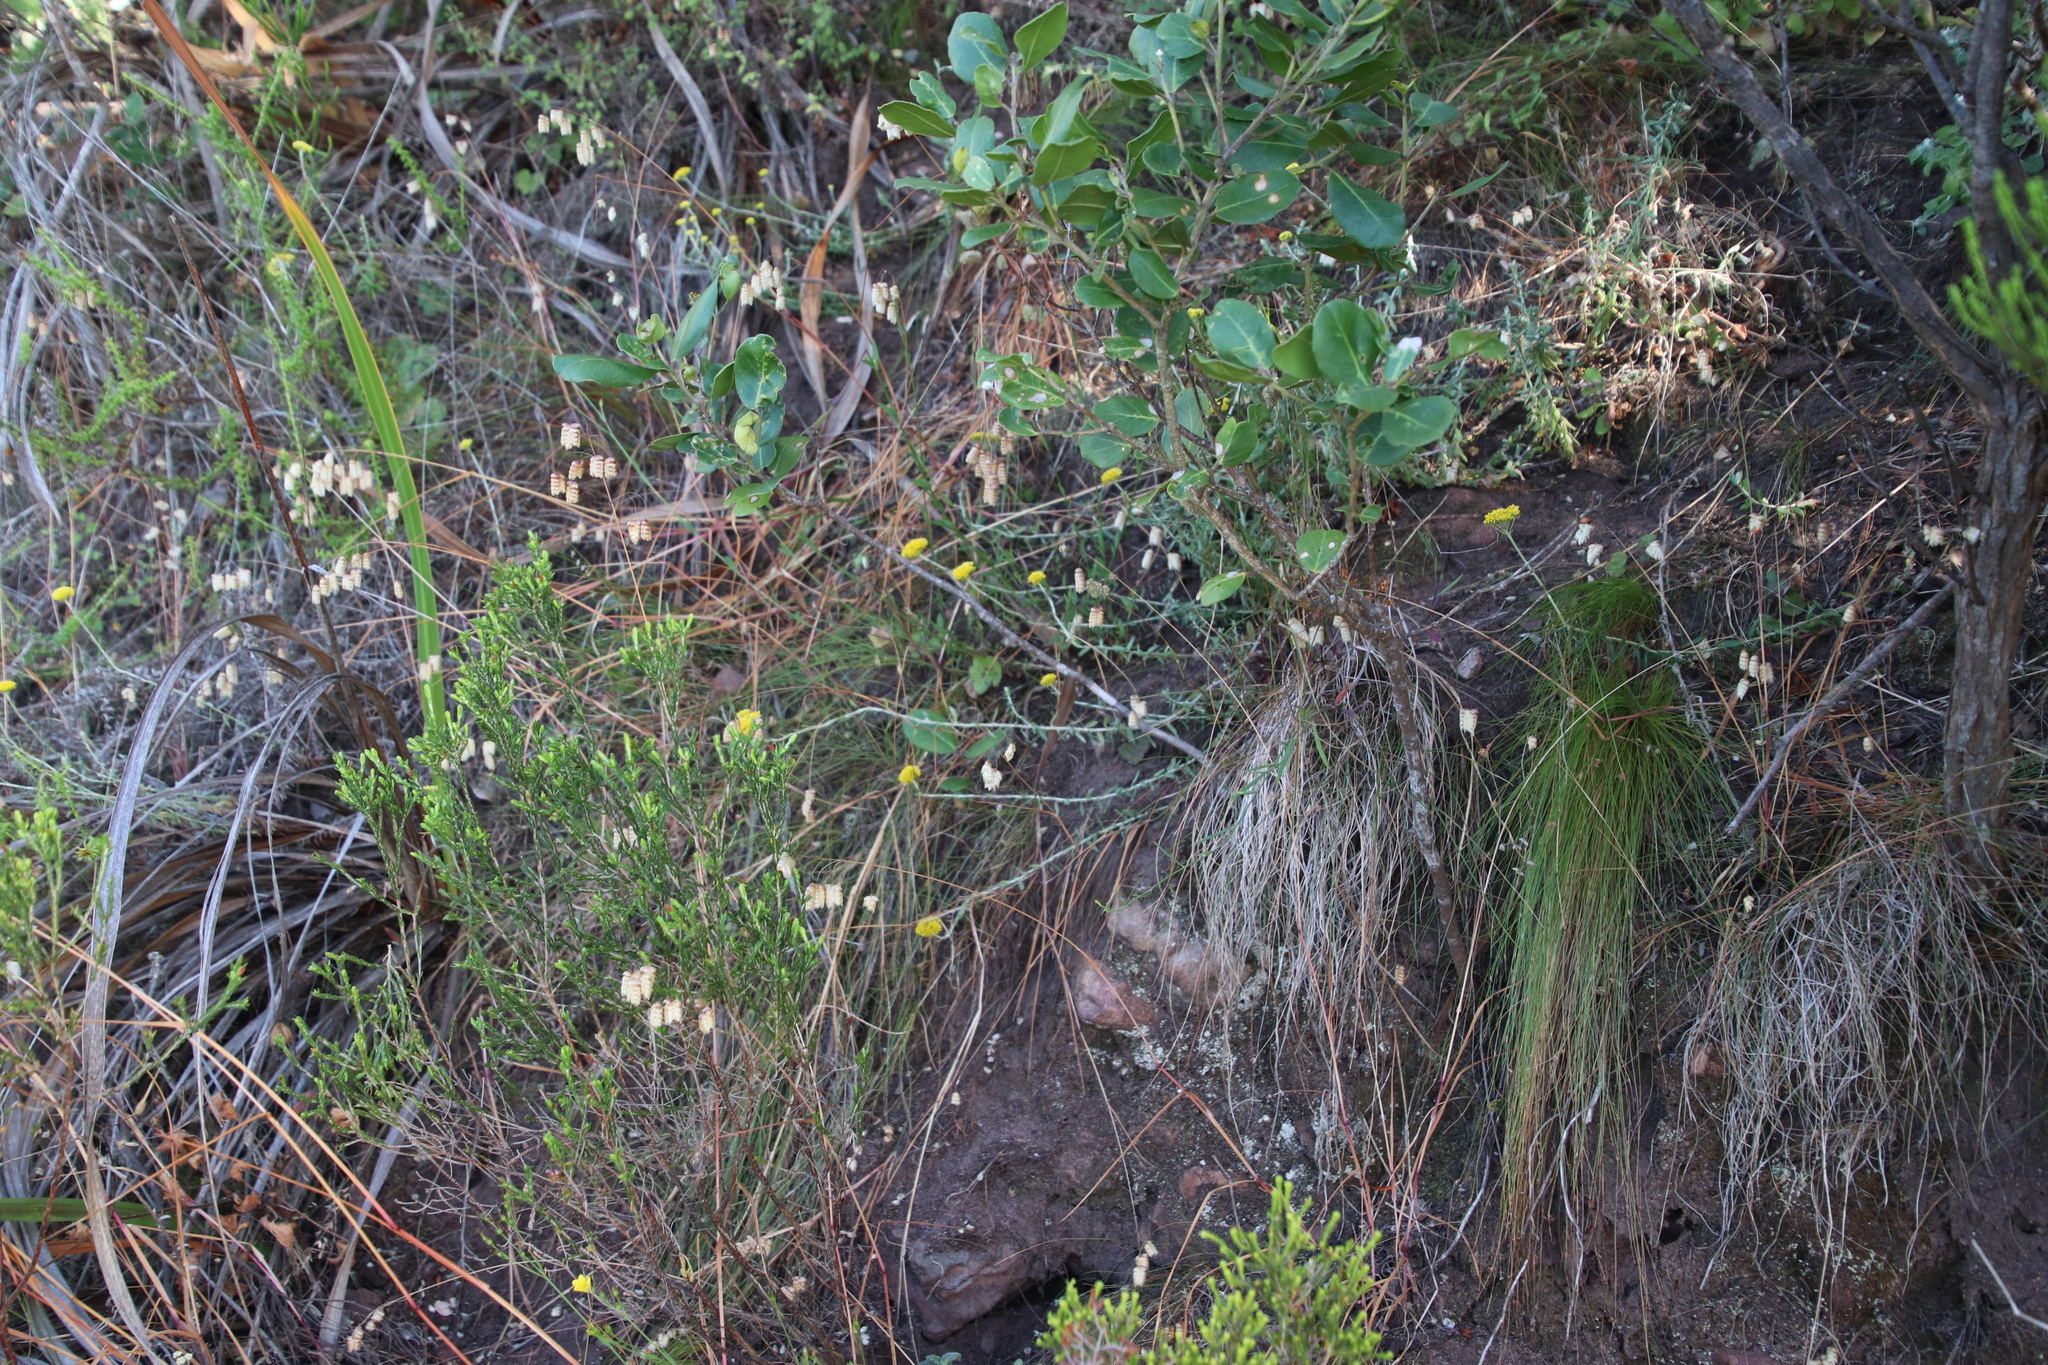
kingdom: Plantae
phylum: Tracheophyta
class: Magnoliopsida
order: Asterales
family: Asteraceae
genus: Helichrysum
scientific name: Helichrysum cymosum
